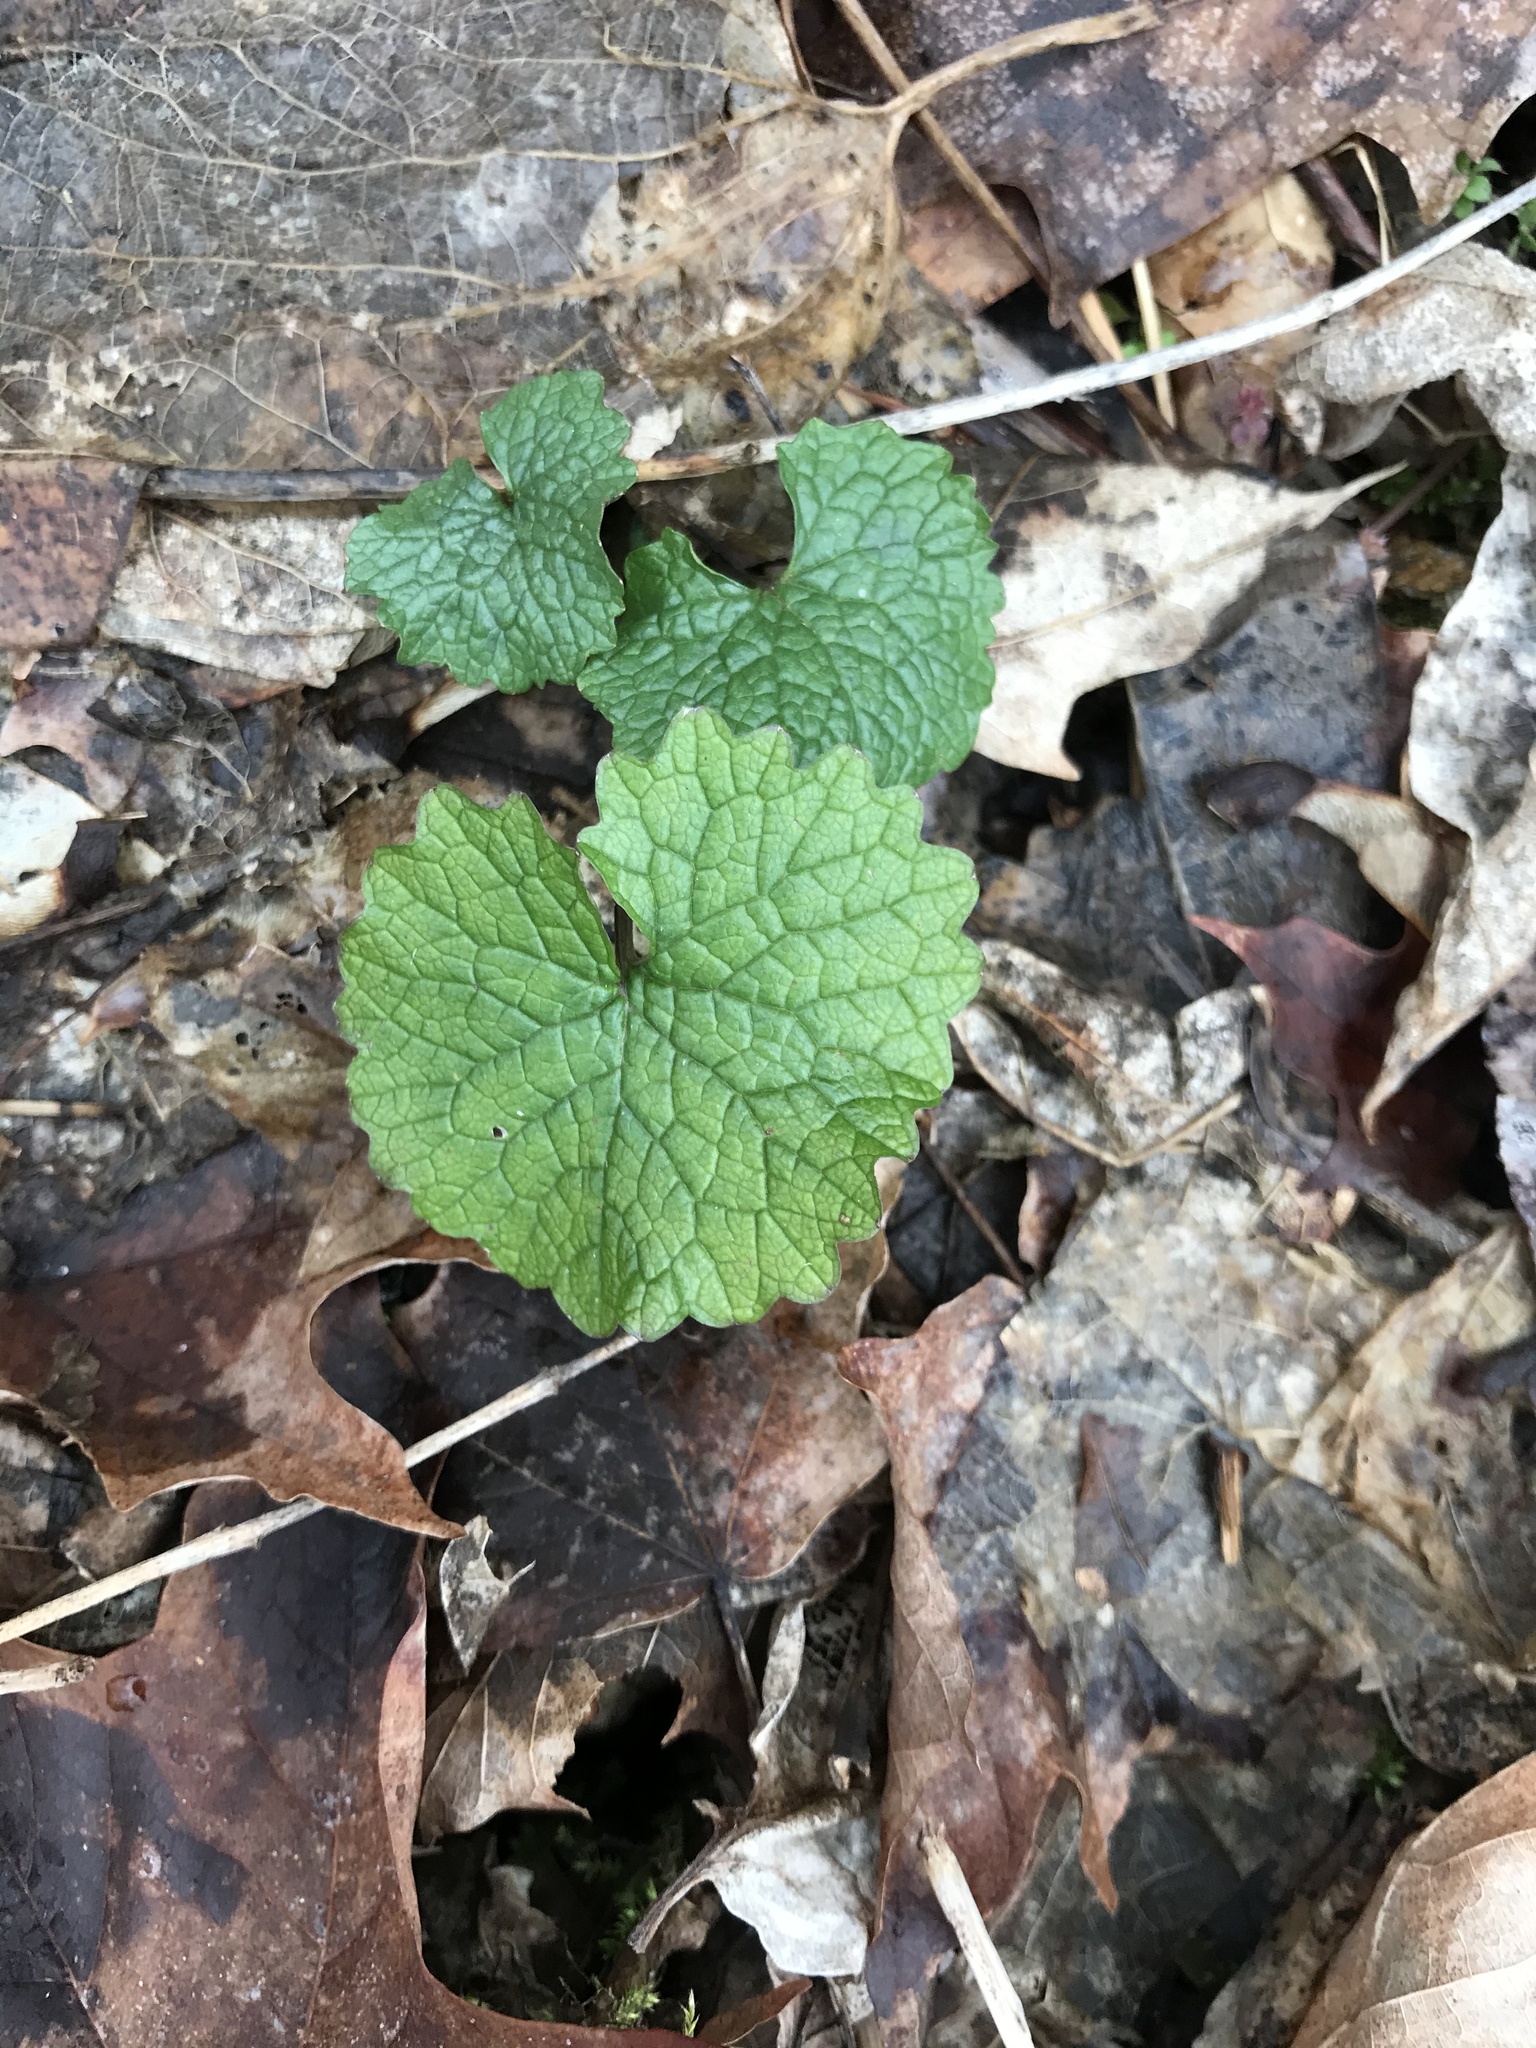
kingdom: Plantae
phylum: Tracheophyta
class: Magnoliopsida
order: Brassicales
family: Brassicaceae
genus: Alliaria
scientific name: Alliaria petiolata
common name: Garlic mustard
